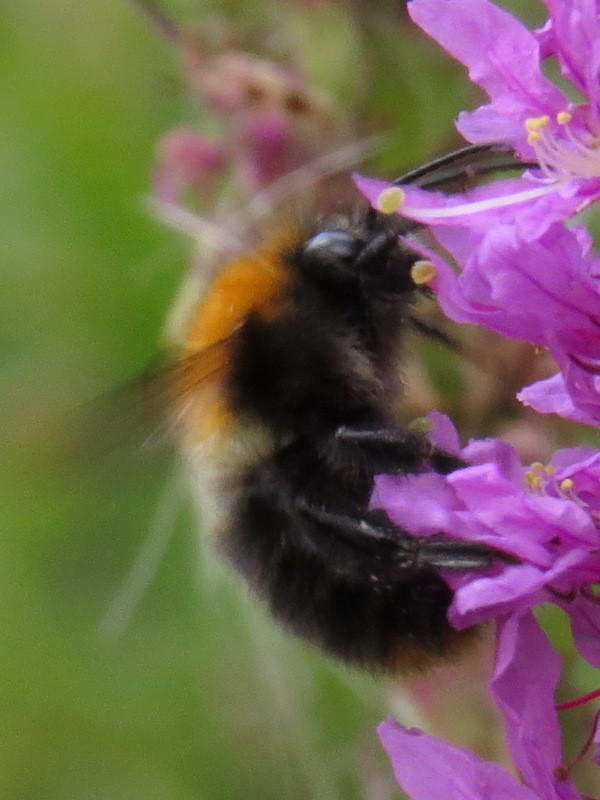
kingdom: Animalia
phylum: Arthropoda
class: Insecta
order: Hymenoptera
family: Apidae
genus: Bombus
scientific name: Bombus pascuorum
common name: Common carder bee
